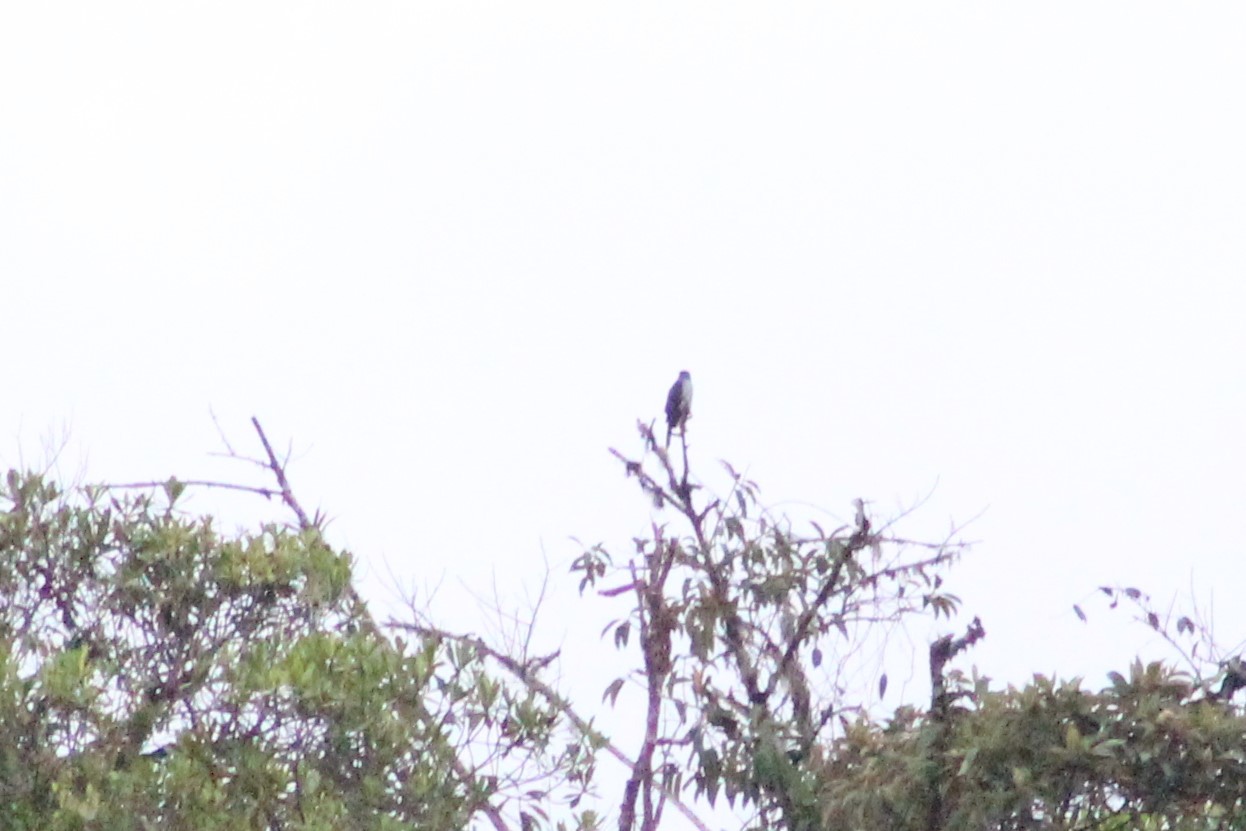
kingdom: Animalia
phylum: Chordata
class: Aves
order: Accipitriformes
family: Accipitridae
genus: Leptodon
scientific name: Leptodon cayanensis
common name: Gray-headed kite
